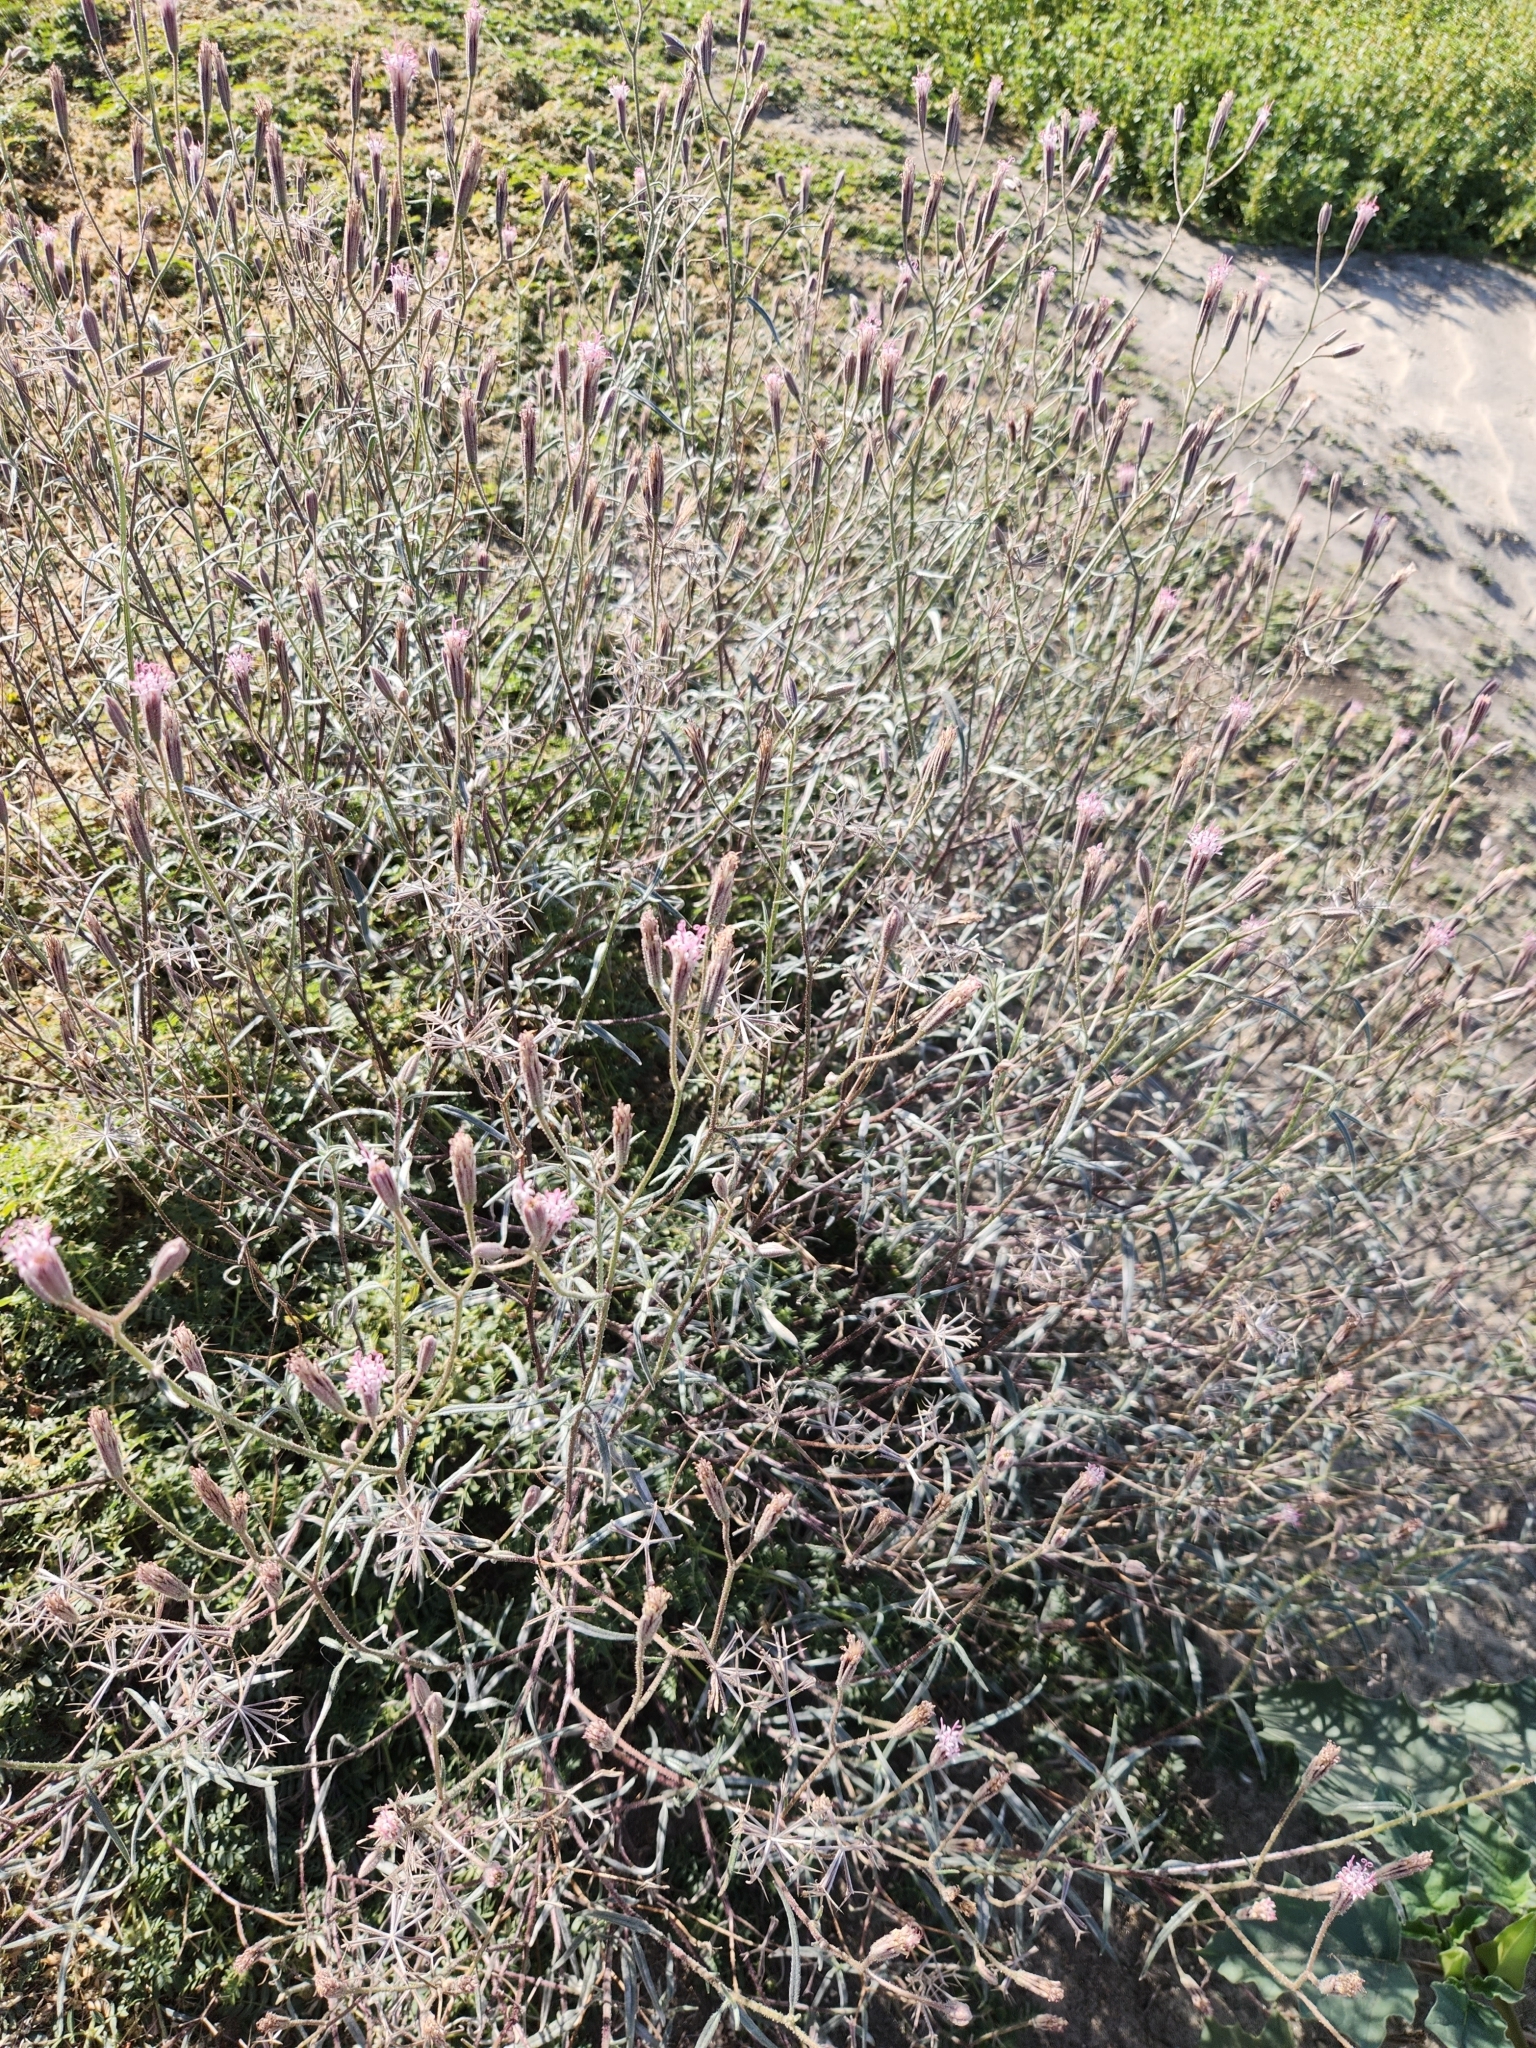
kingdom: Plantae
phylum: Tracheophyta
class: Magnoliopsida
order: Asterales
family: Asteraceae
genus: Palafoxia
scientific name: Palafoxia arida
